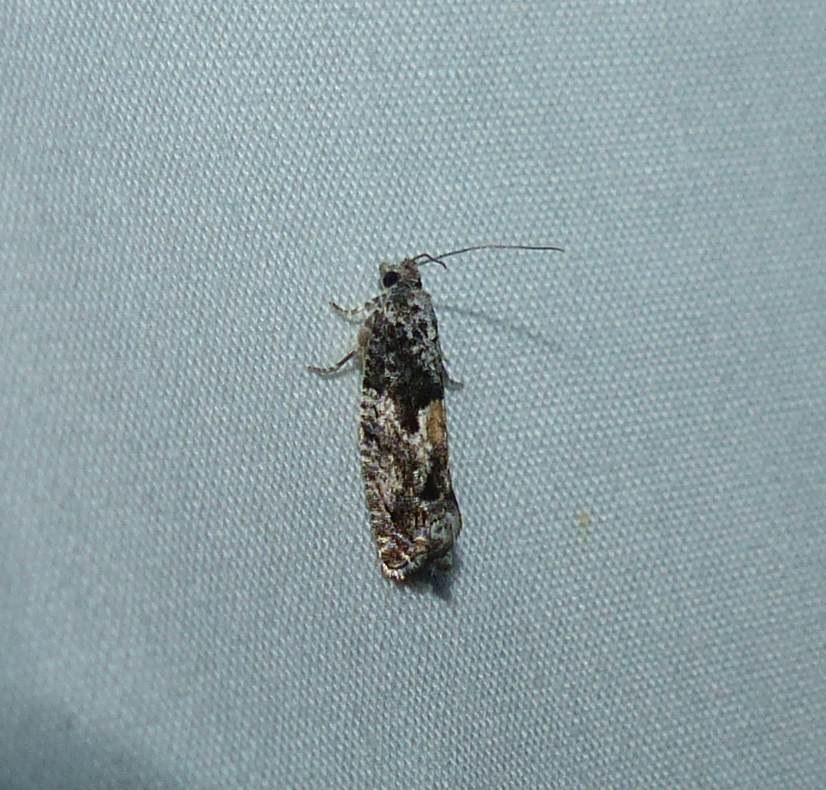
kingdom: Animalia
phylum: Arthropoda
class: Insecta
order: Lepidoptera
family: Tortricidae
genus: Epinotia
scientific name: Epinotia nisella
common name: Grey poplar bell
